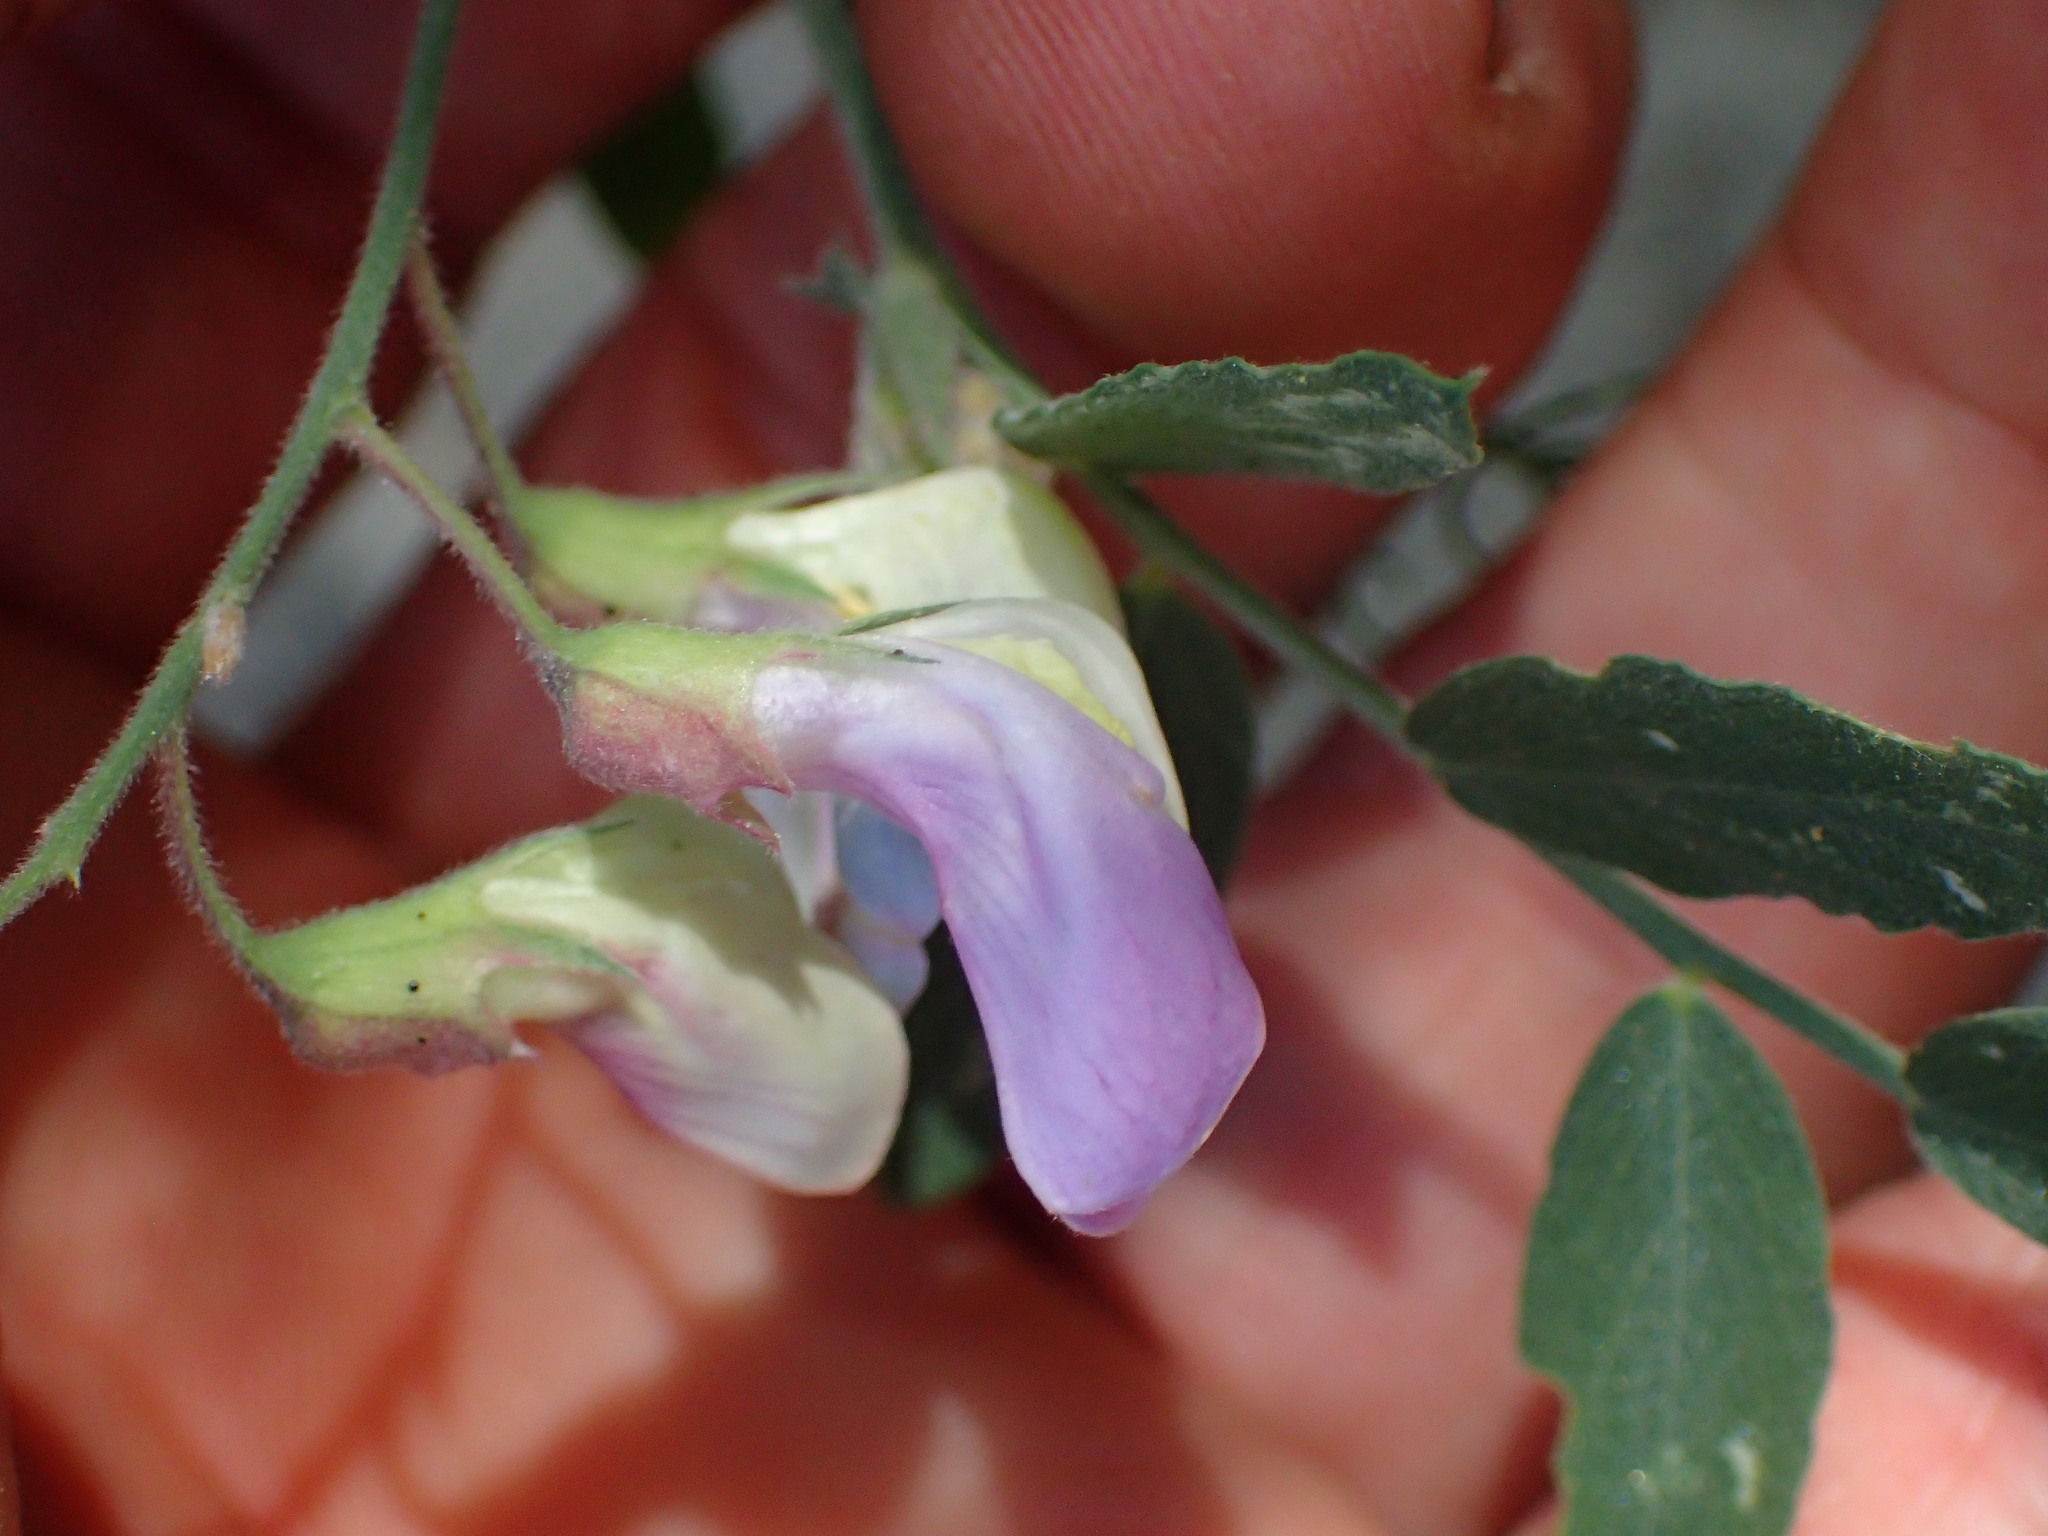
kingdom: Plantae
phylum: Tracheophyta
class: Magnoliopsida
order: Fabales
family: Fabaceae
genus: Lathyrus
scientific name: Lathyrus vestitus
